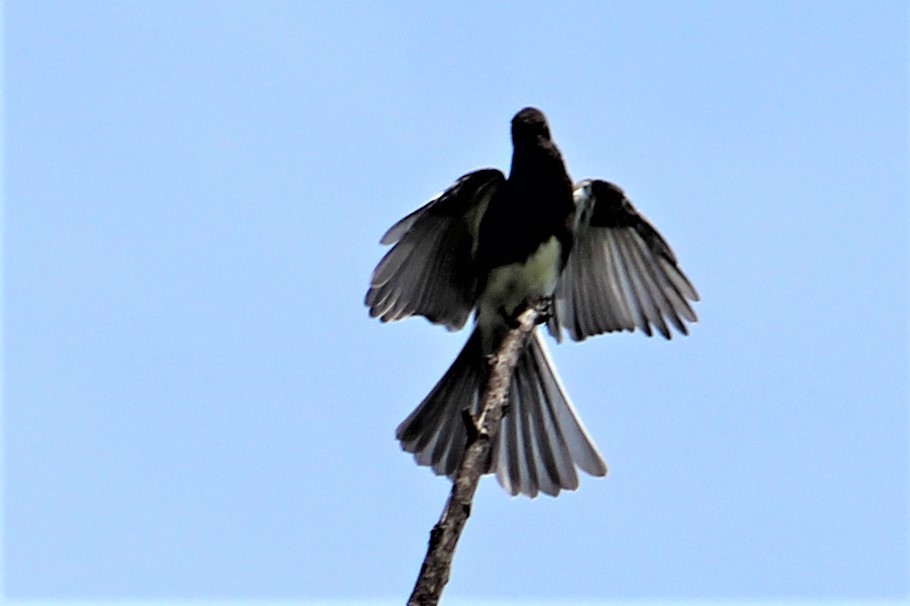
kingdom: Animalia
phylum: Chordata
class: Aves
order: Passeriformes
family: Tyrannidae
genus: Sayornis
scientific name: Sayornis nigricans
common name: Black phoebe
